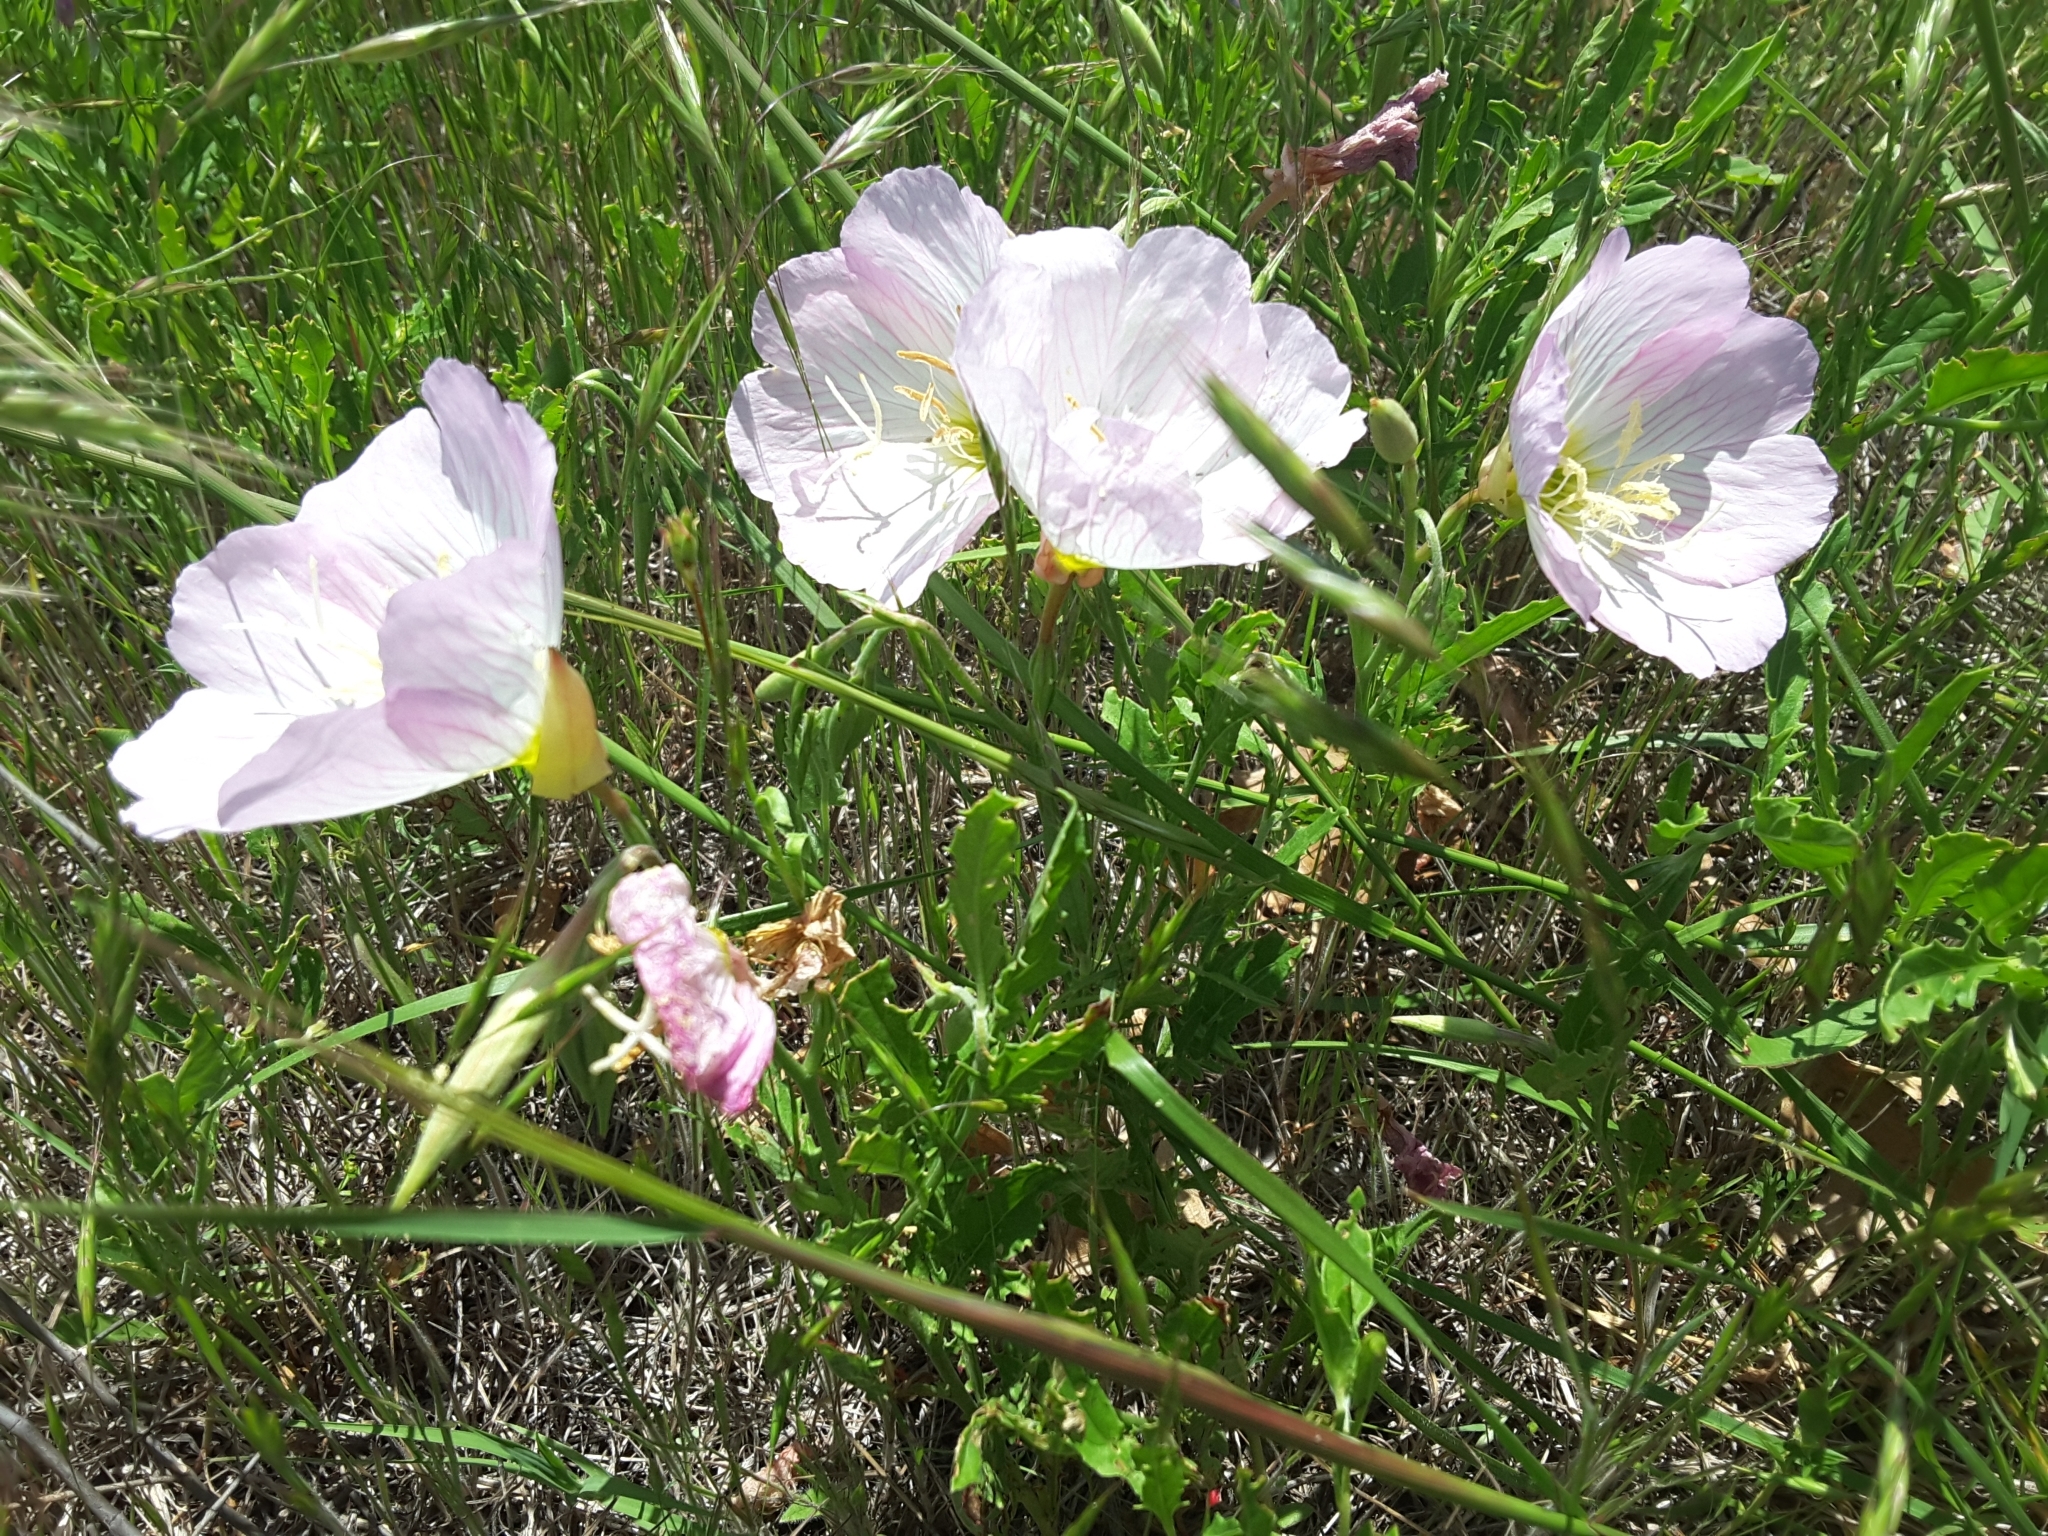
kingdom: Plantae
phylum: Tracheophyta
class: Magnoliopsida
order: Myrtales
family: Onagraceae
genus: Oenothera
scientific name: Oenothera speciosa
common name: White evening-primrose
